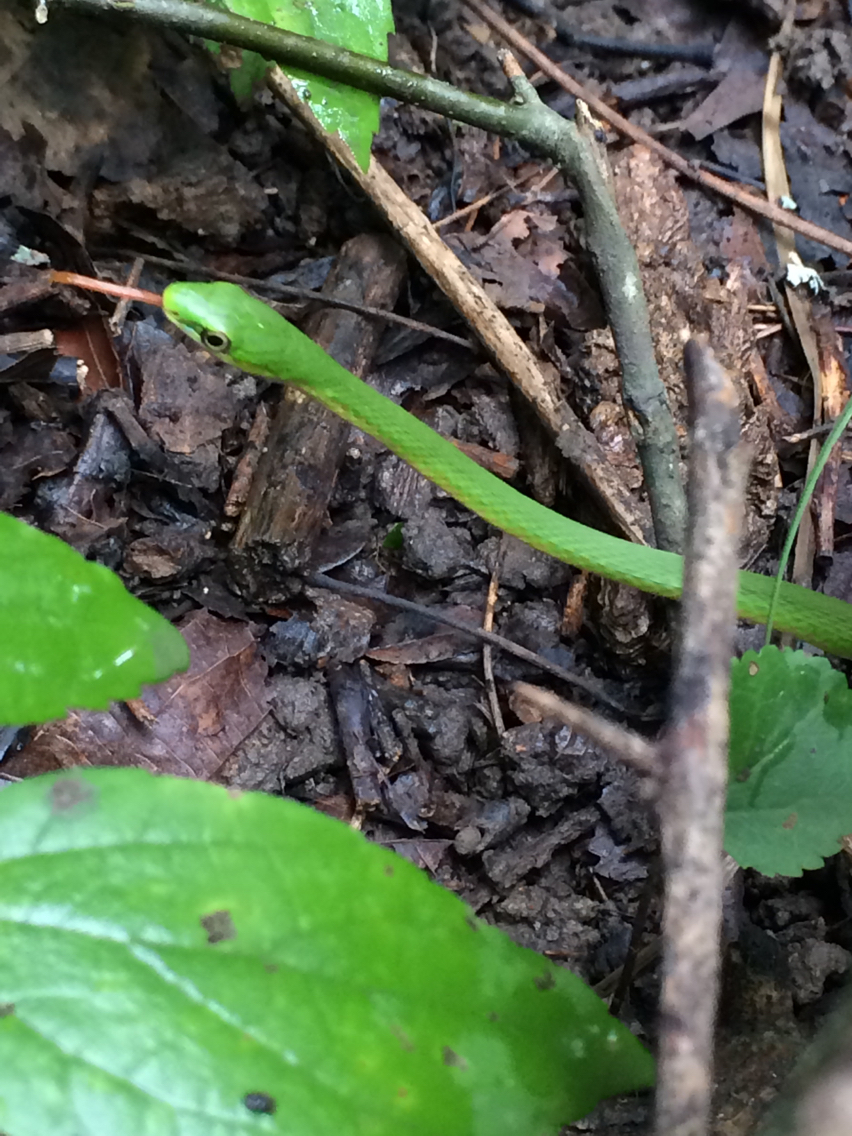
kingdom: Animalia
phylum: Chordata
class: Squamata
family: Colubridae
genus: Opheodrys
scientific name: Opheodrys aestivus
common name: Rough greensnake
